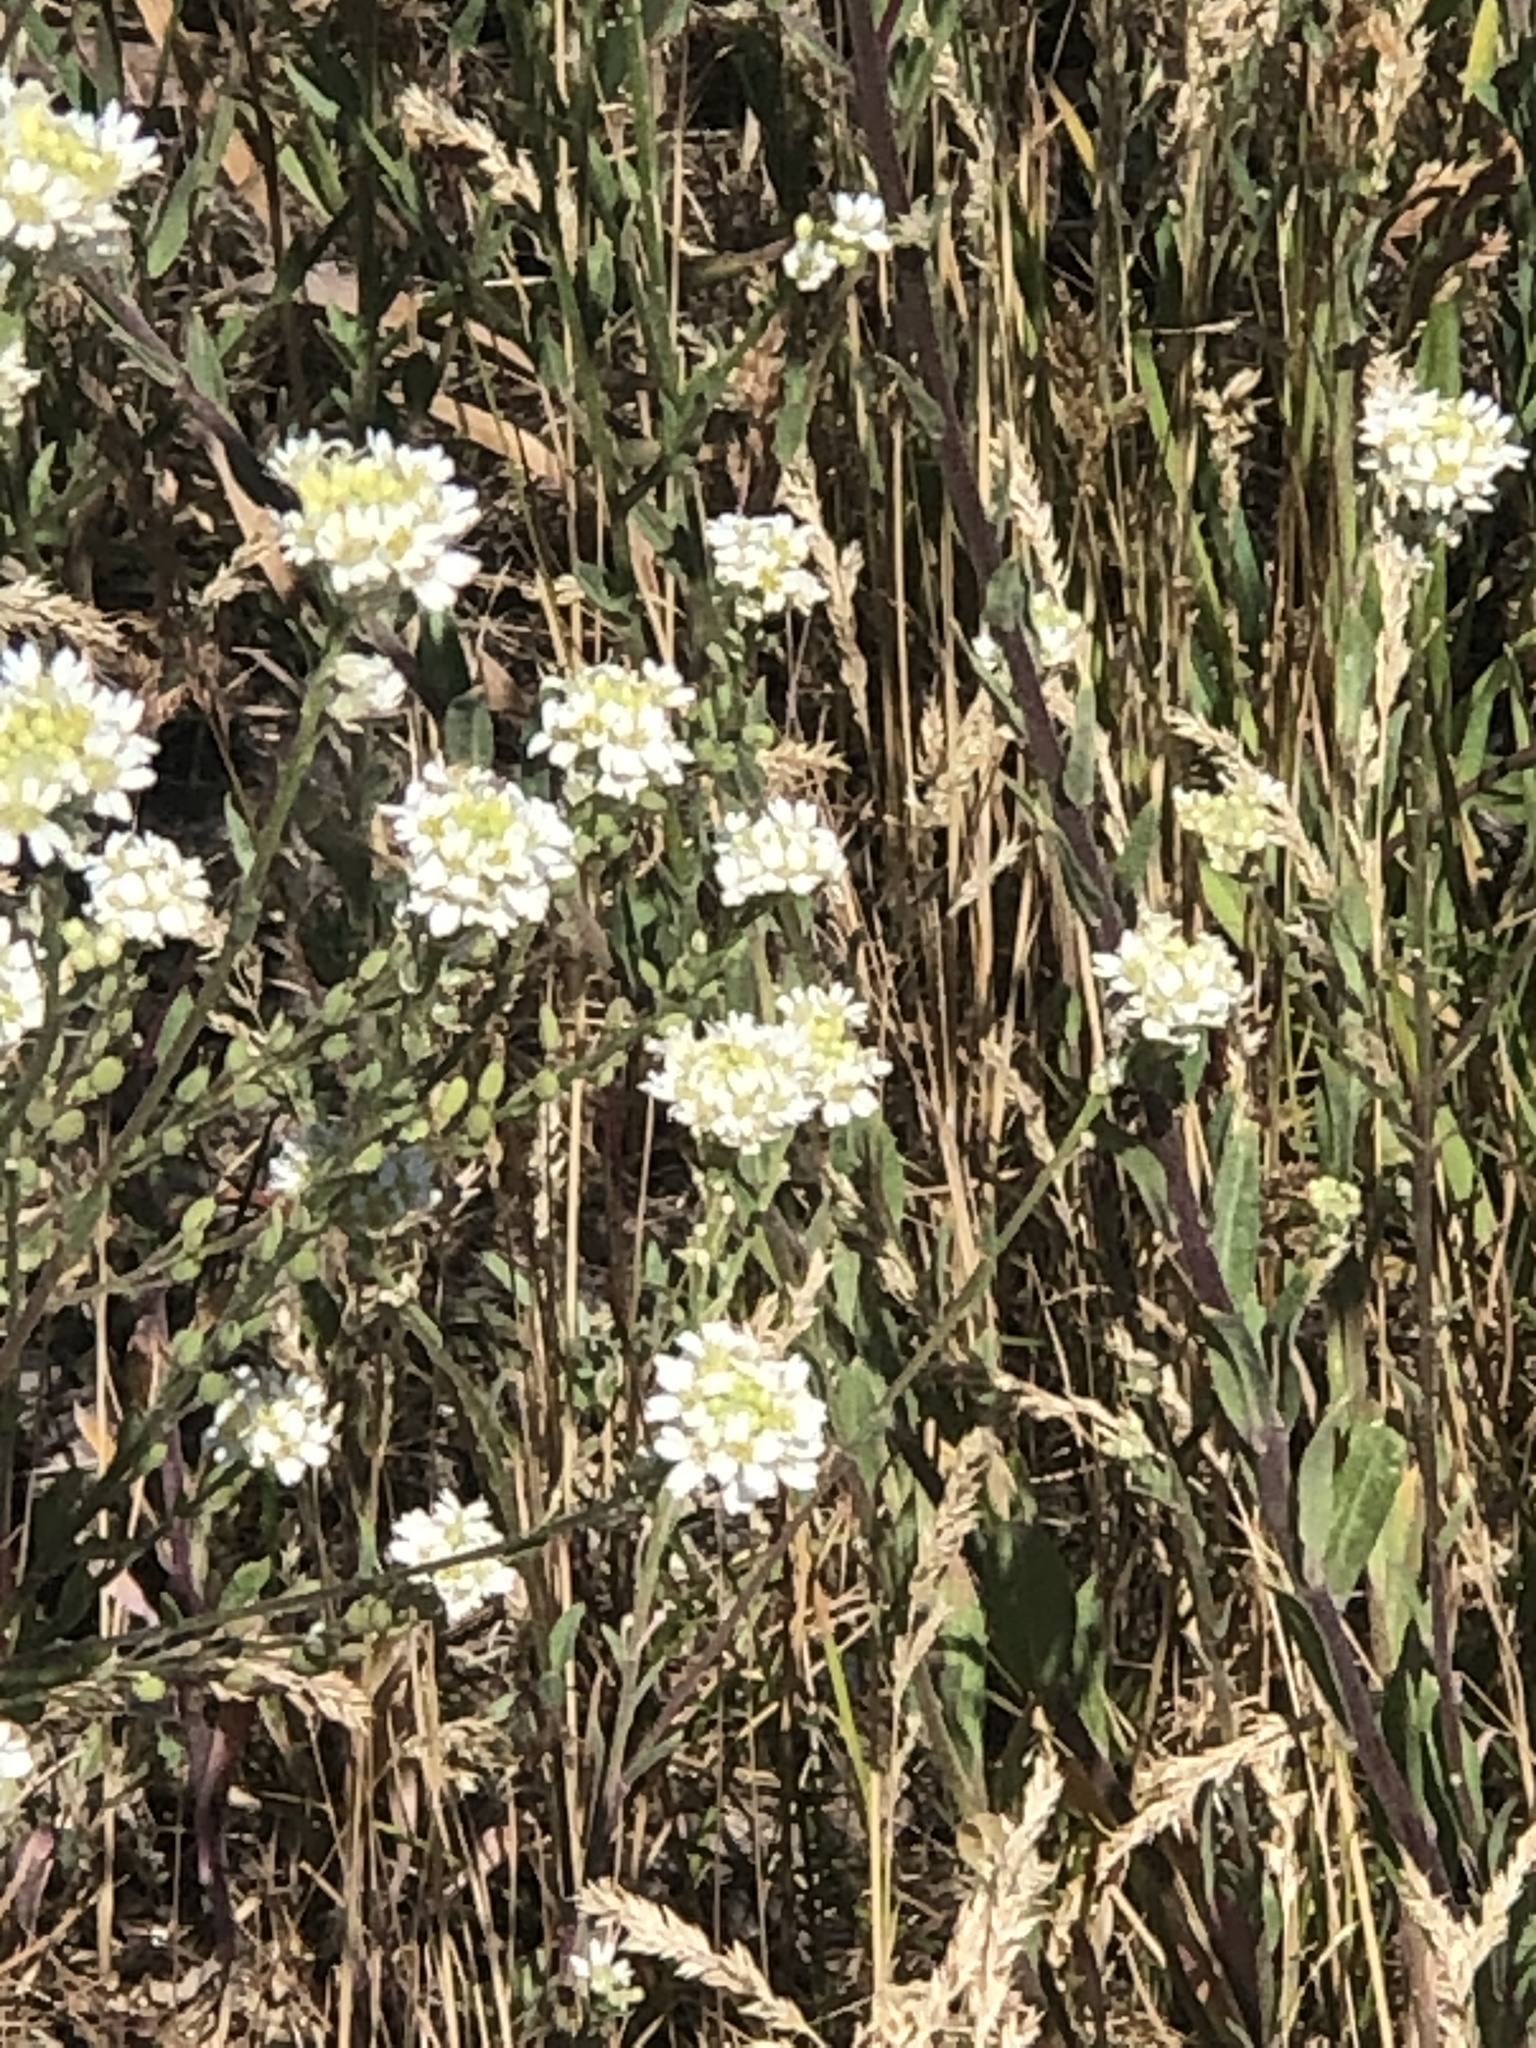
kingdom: Plantae
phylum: Tracheophyta
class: Magnoliopsida
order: Brassicales
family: Brassicaceae
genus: Berteroa
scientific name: Berteroa incana
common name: Hoary alison
